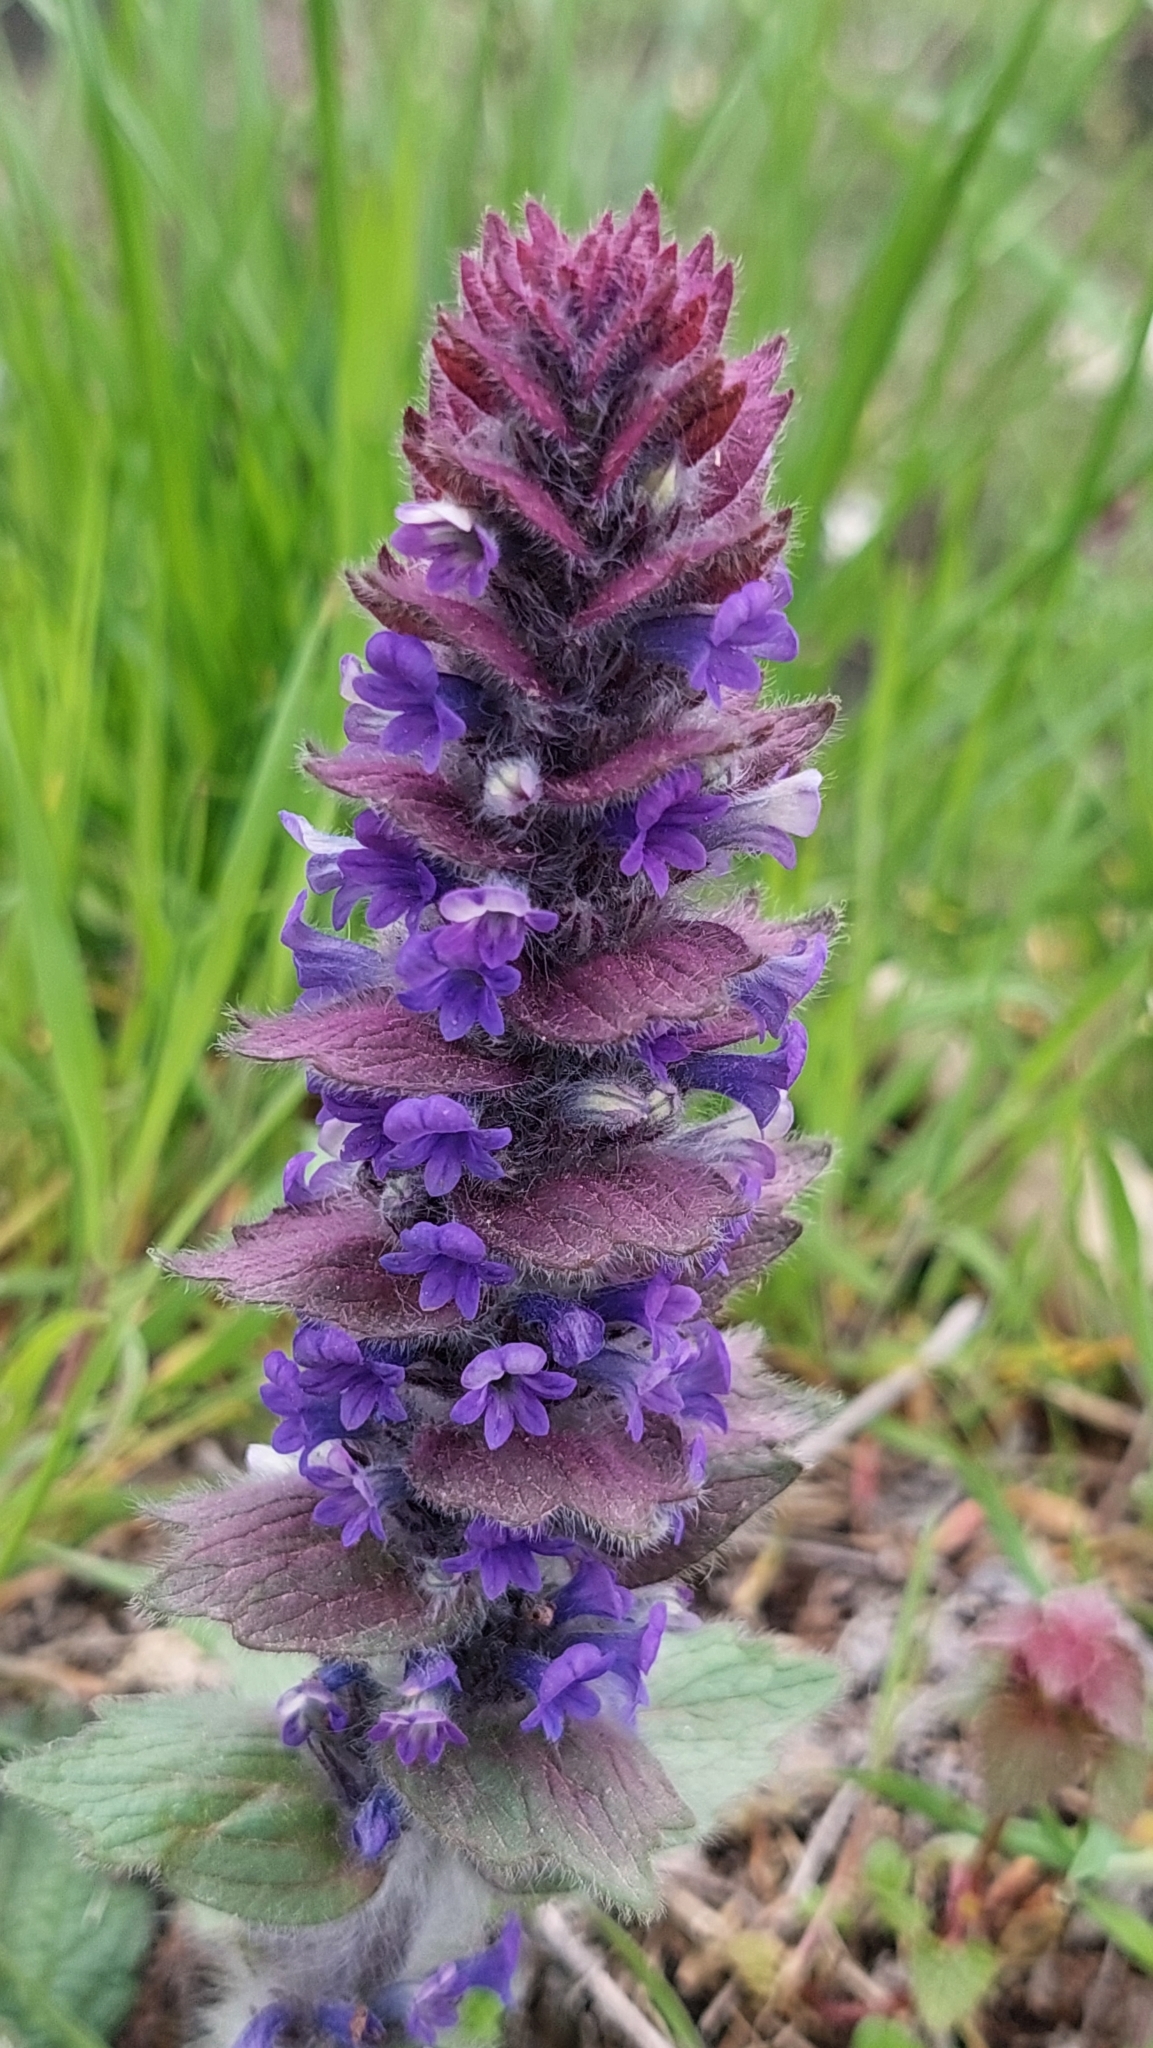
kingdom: Plantae
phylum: Tracheophyta
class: Magnoliopsida
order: Lamiales
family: Lamiaceae
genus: Ajuga
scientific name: Ajuga orientalis
